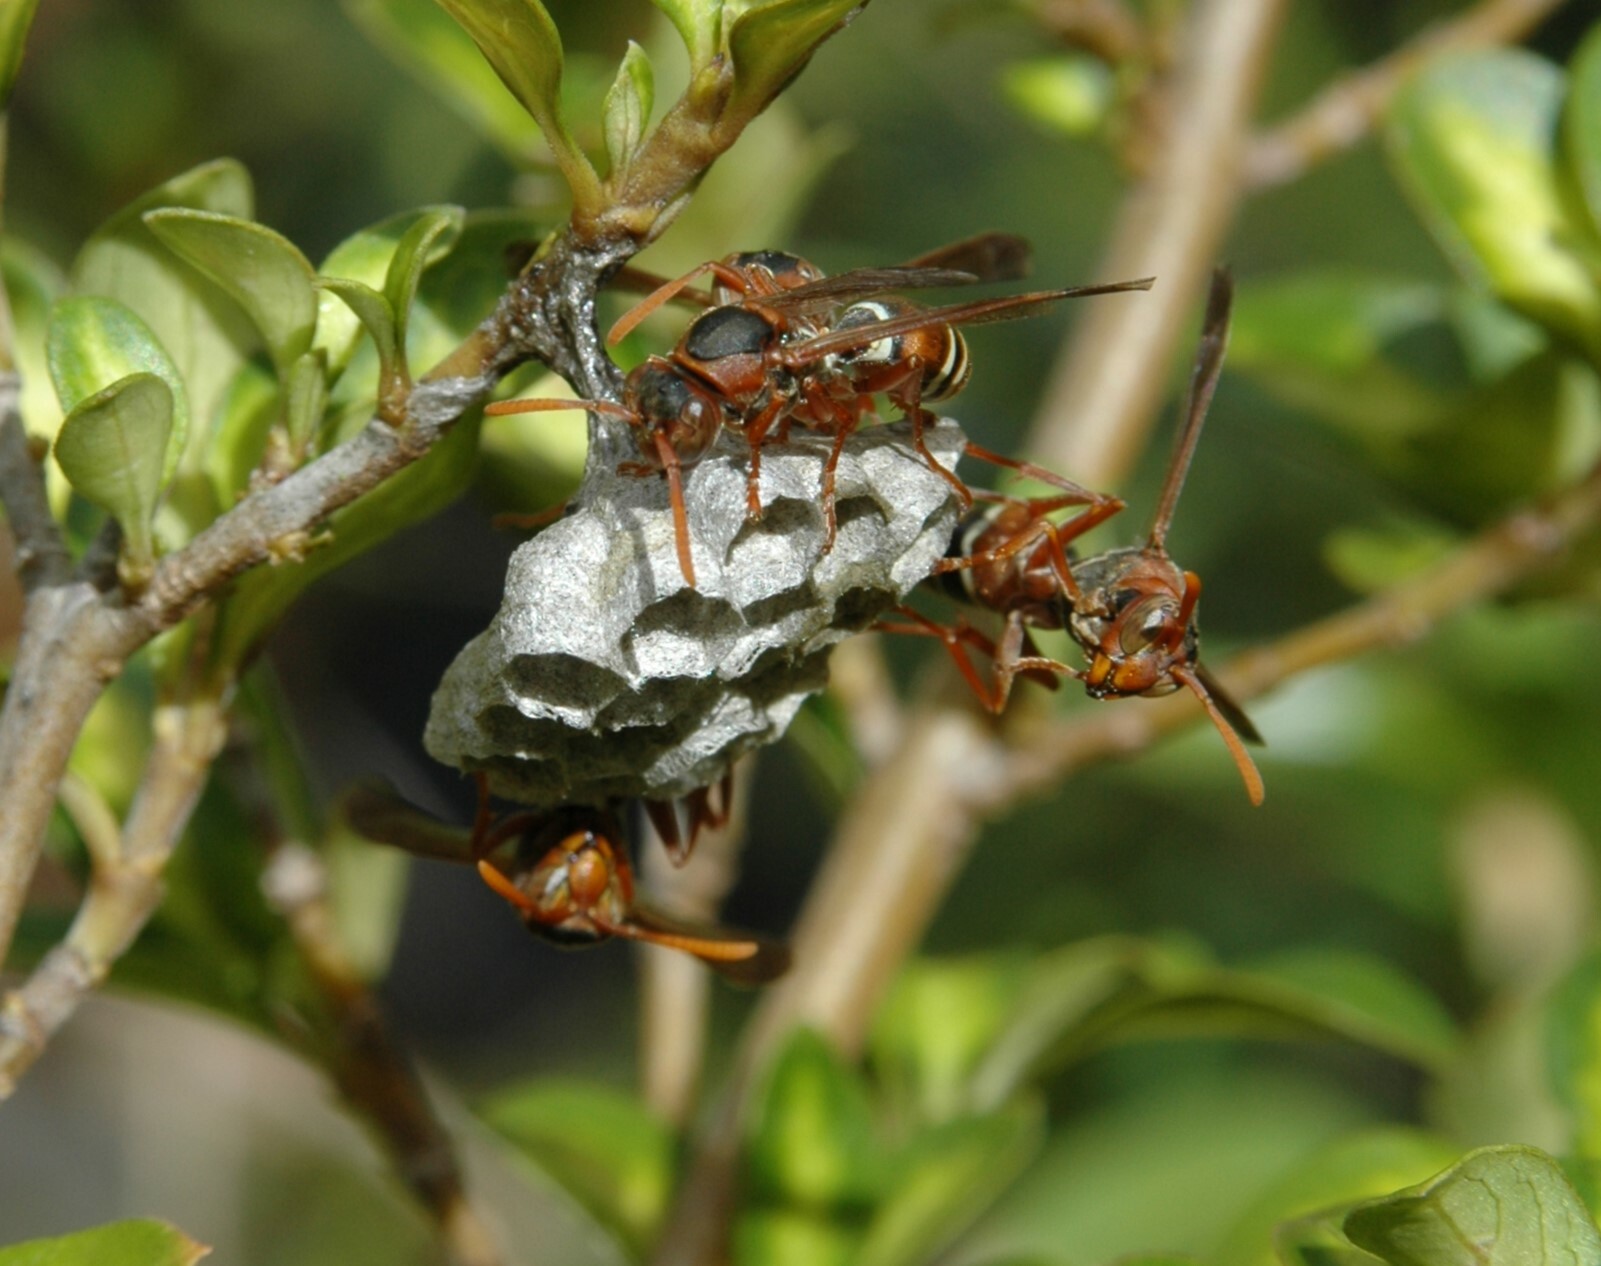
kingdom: Animalia
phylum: Arthropoda
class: Insecta
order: Hymenoptera
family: Eumenidae
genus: Polistes
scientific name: Polistes marginalis
